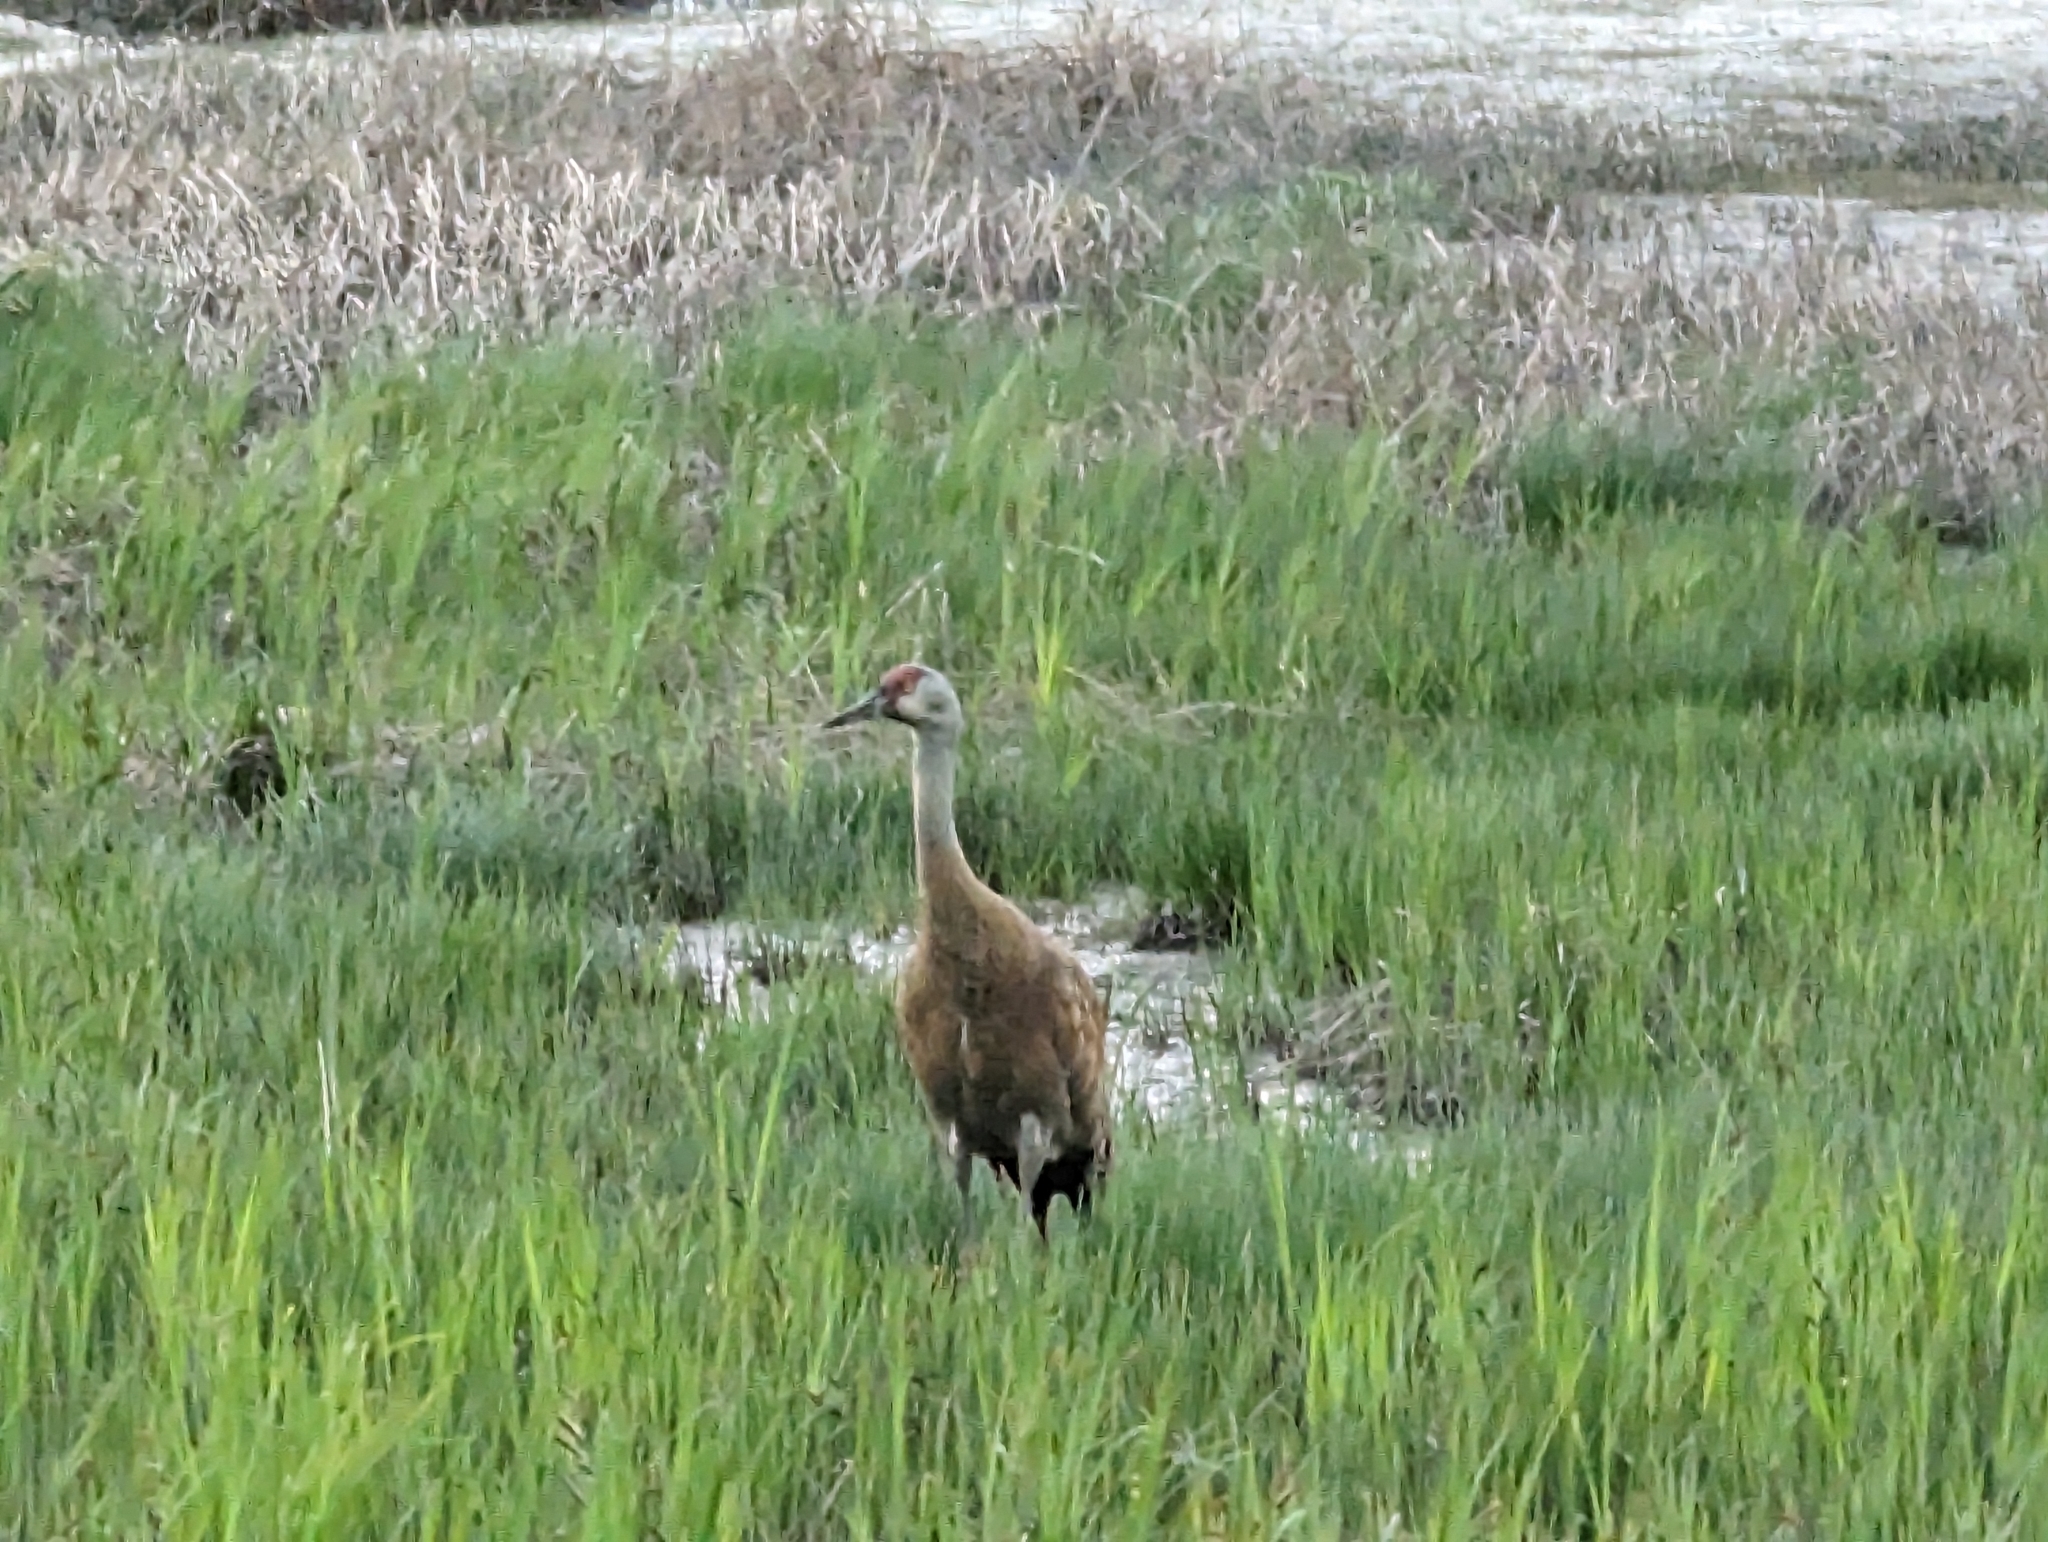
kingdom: Animalia
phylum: Chordata
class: Aves
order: Gruiformes
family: Gruidae
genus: Grus
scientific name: Grus canadensis
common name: Sandhill crane
